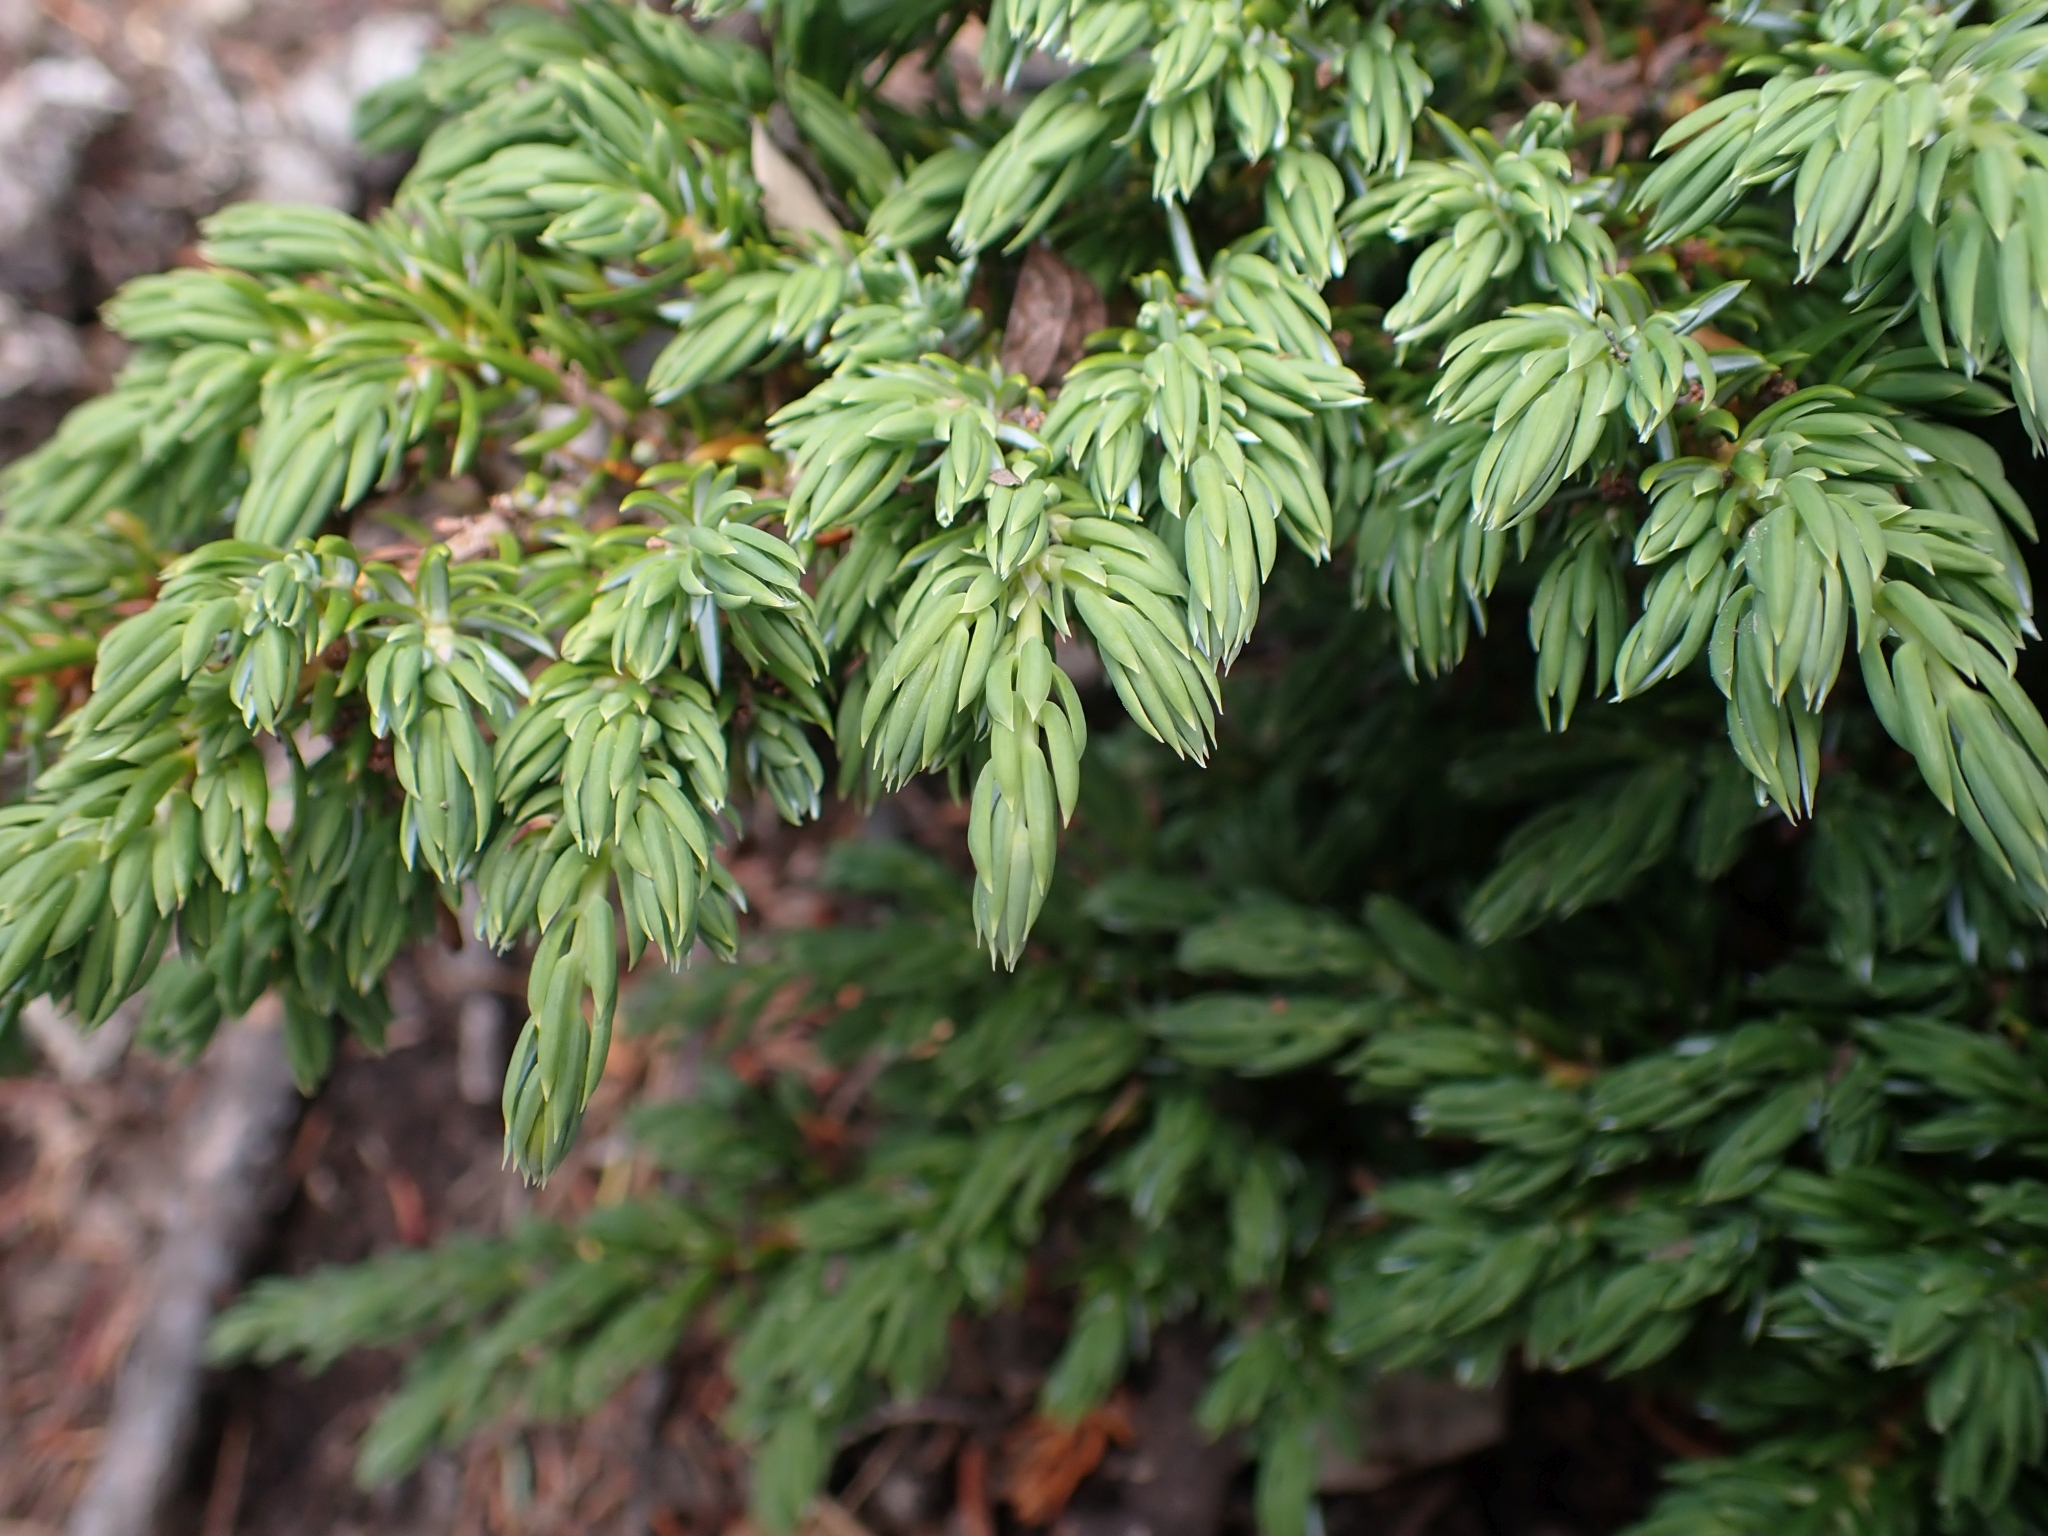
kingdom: Plantae
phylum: Tracheophyta
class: Pinopsida
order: Pinales
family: Cupressaceae
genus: Juniperus
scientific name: Juniperus communis
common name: Common juniper
